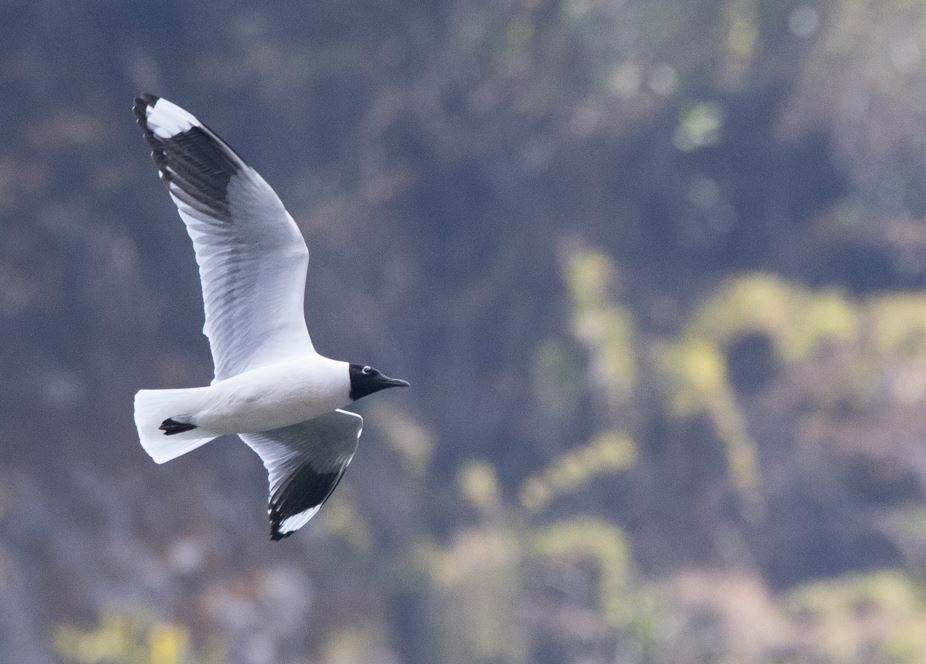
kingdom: Animalia
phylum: Chordata
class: Aves
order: Charadriiformes
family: Laridae
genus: Chroicocephalus
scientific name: Chroicocephalus serranus
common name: Andean gull
